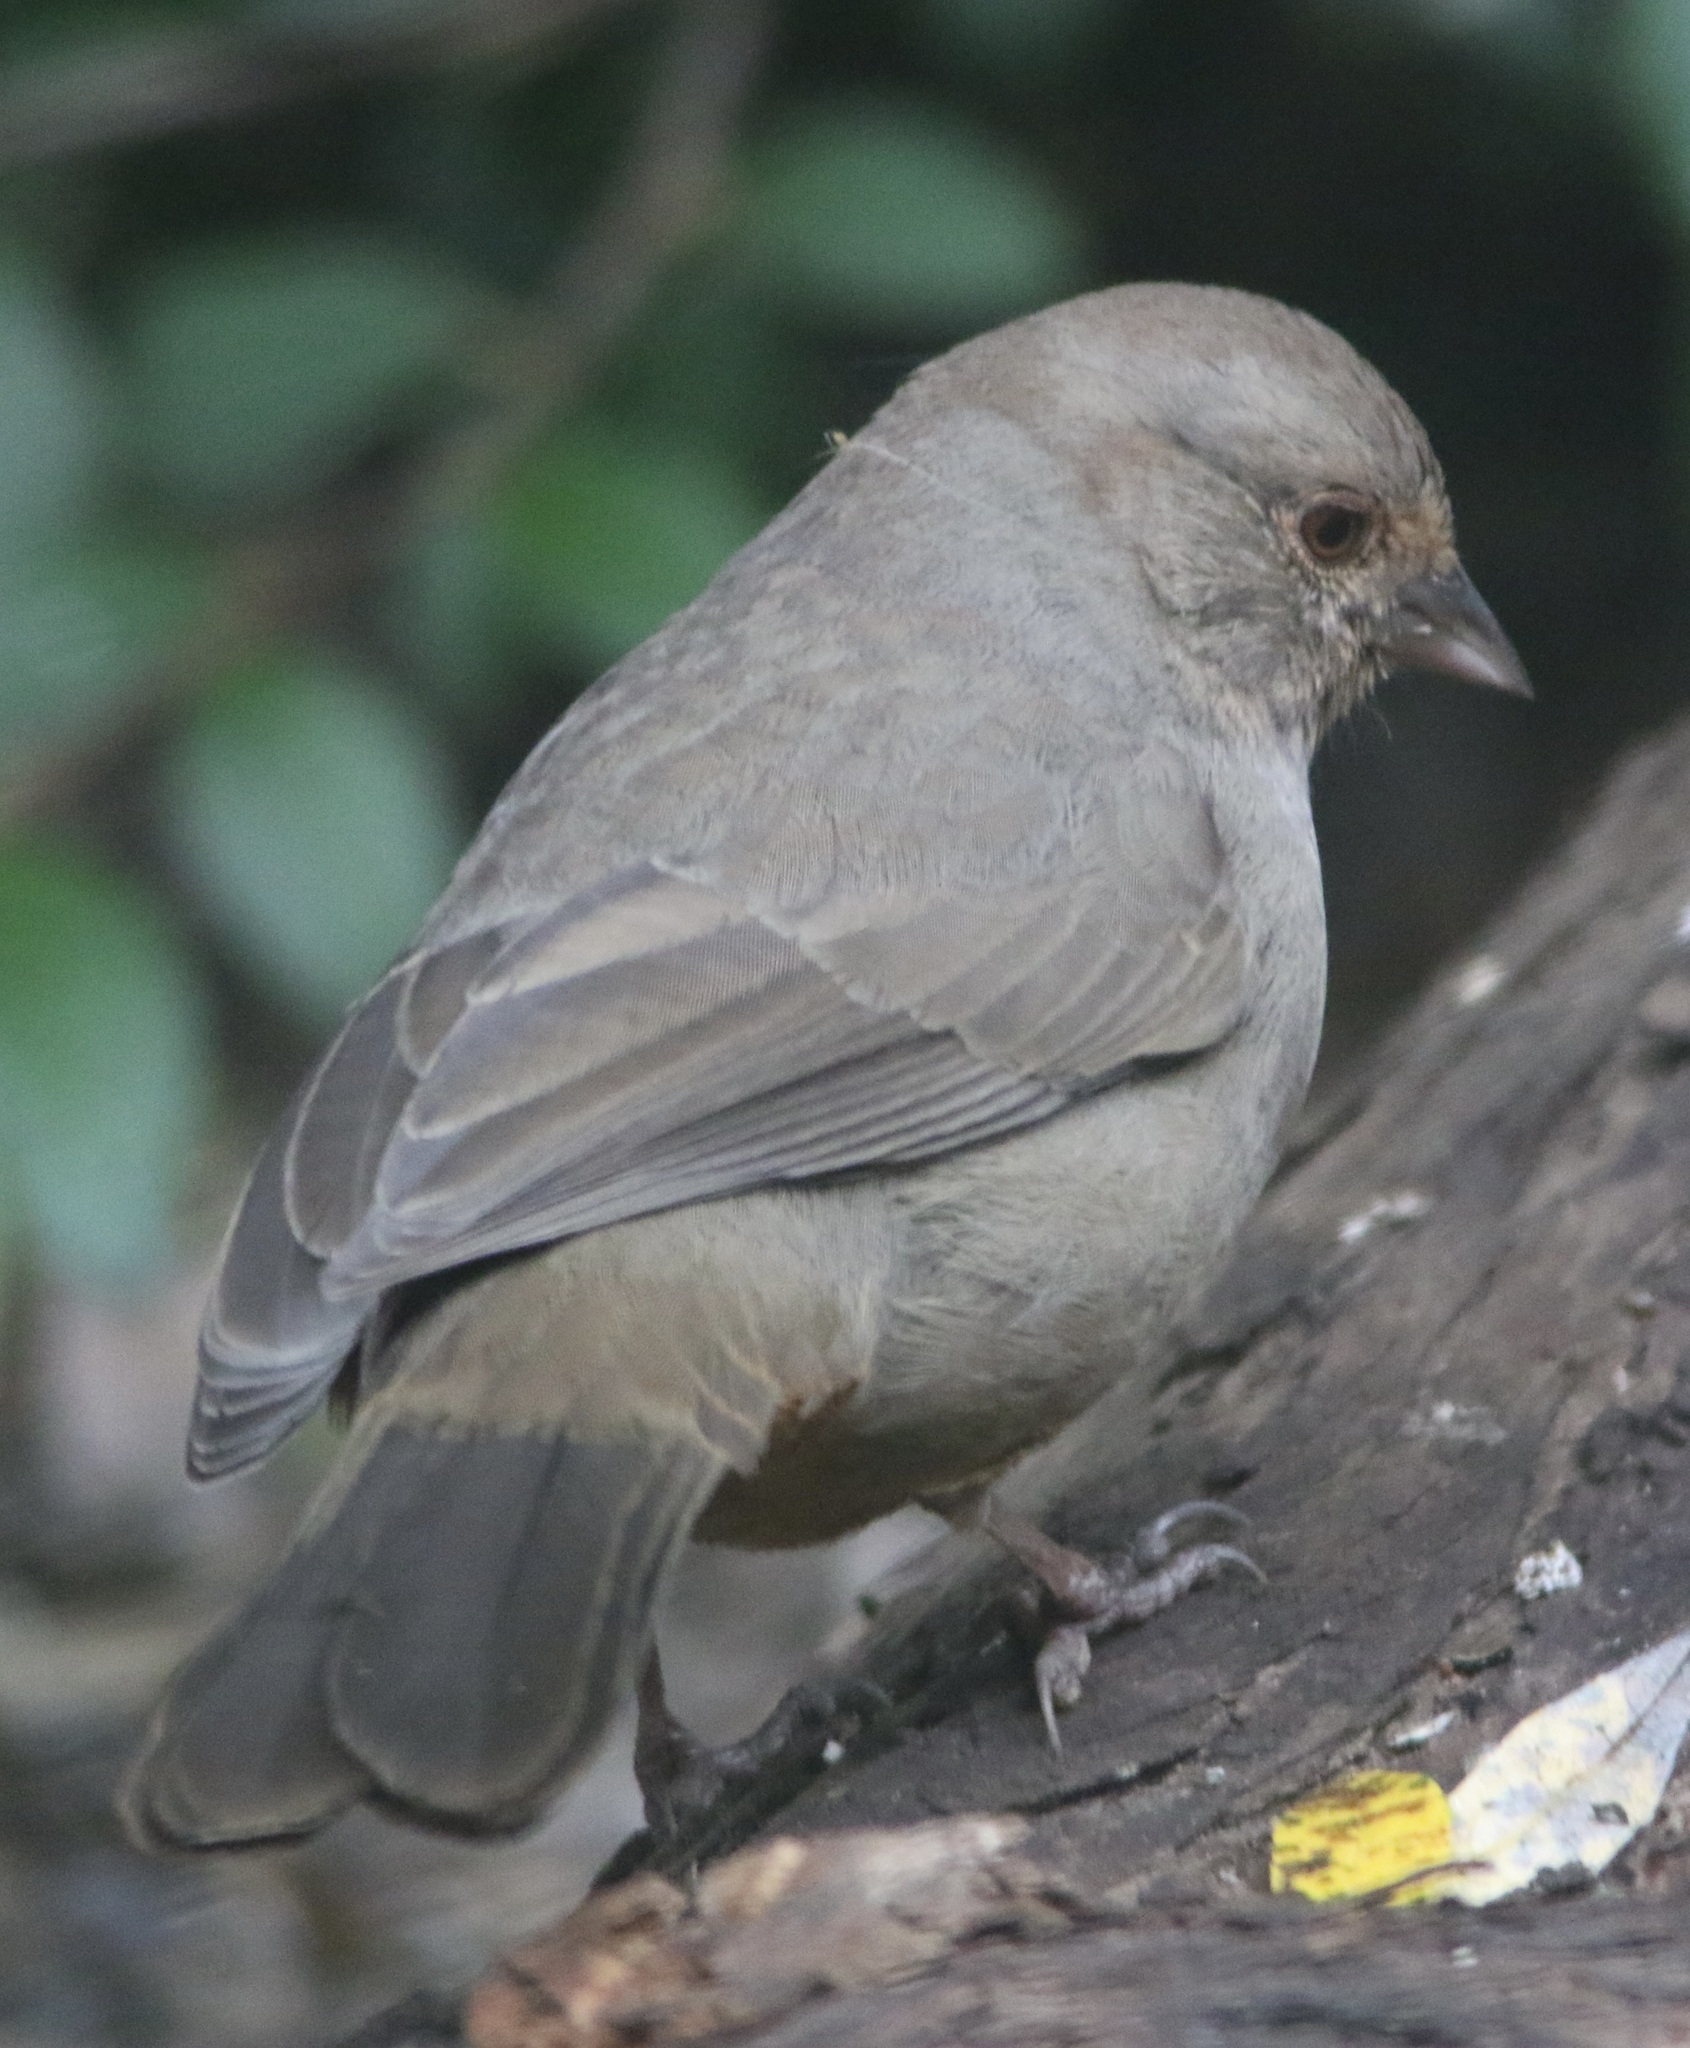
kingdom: Animalia
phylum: Chordata
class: Aves
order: Passeriformes
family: Passerellidae
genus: Melozone
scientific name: Melozone crissalis
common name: California towhee
